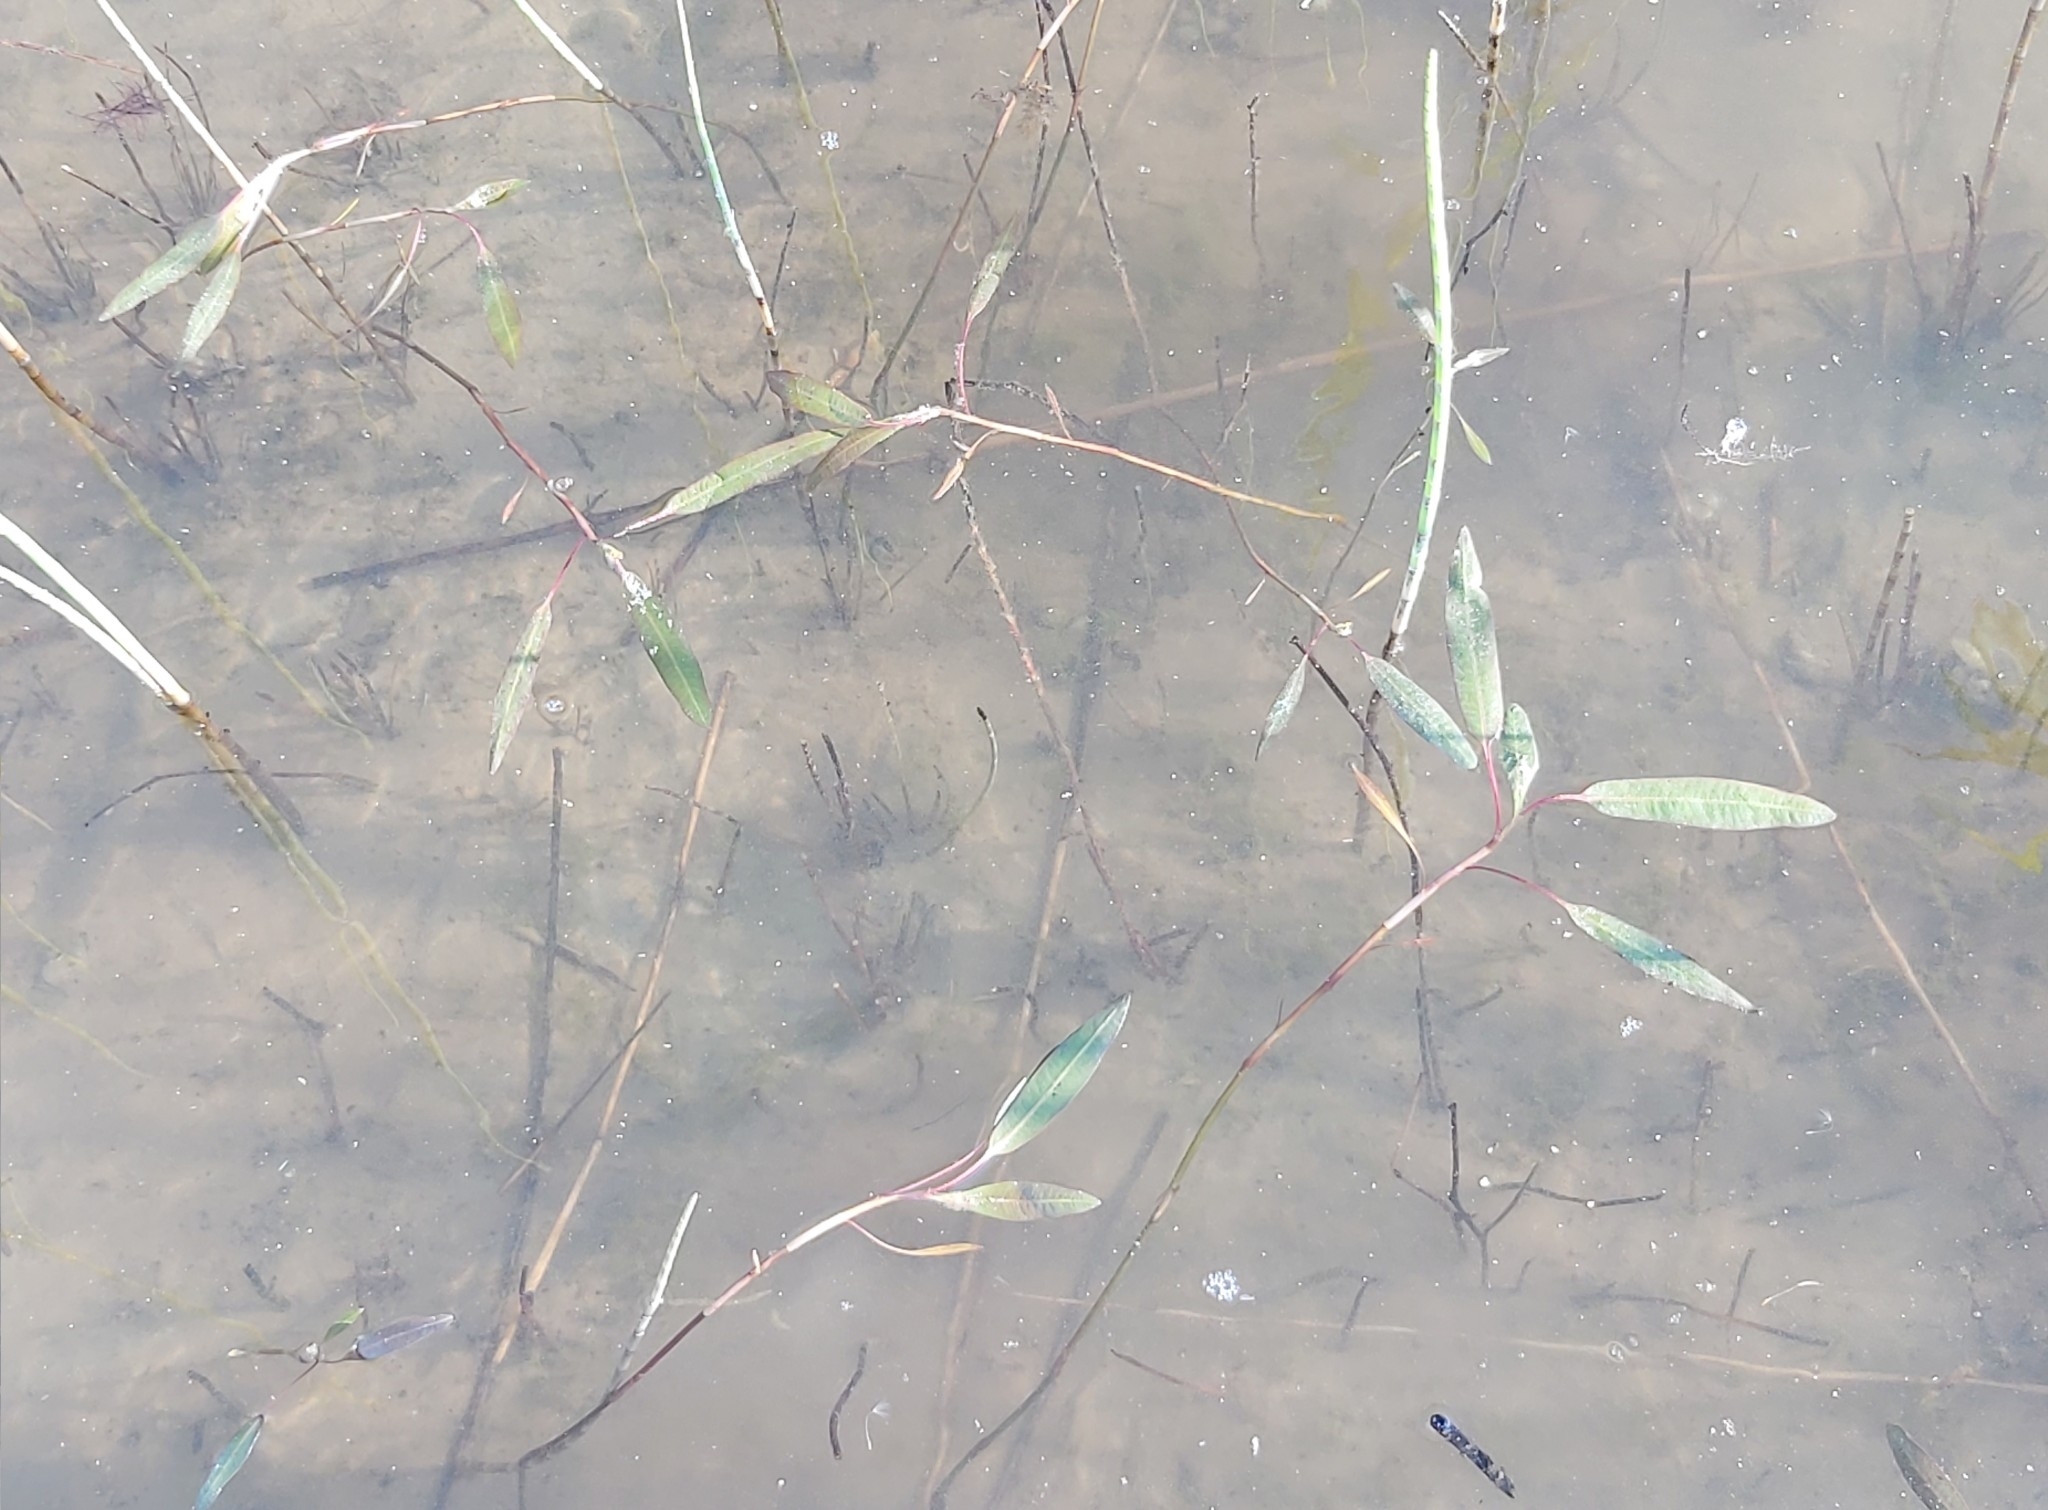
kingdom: Plantae
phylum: Tracheophyta
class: Magnoliopsida
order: Caryophyllales
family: Polygonaceae
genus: Persicaria
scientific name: Persicaria amphibia
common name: Amphibious bistort
